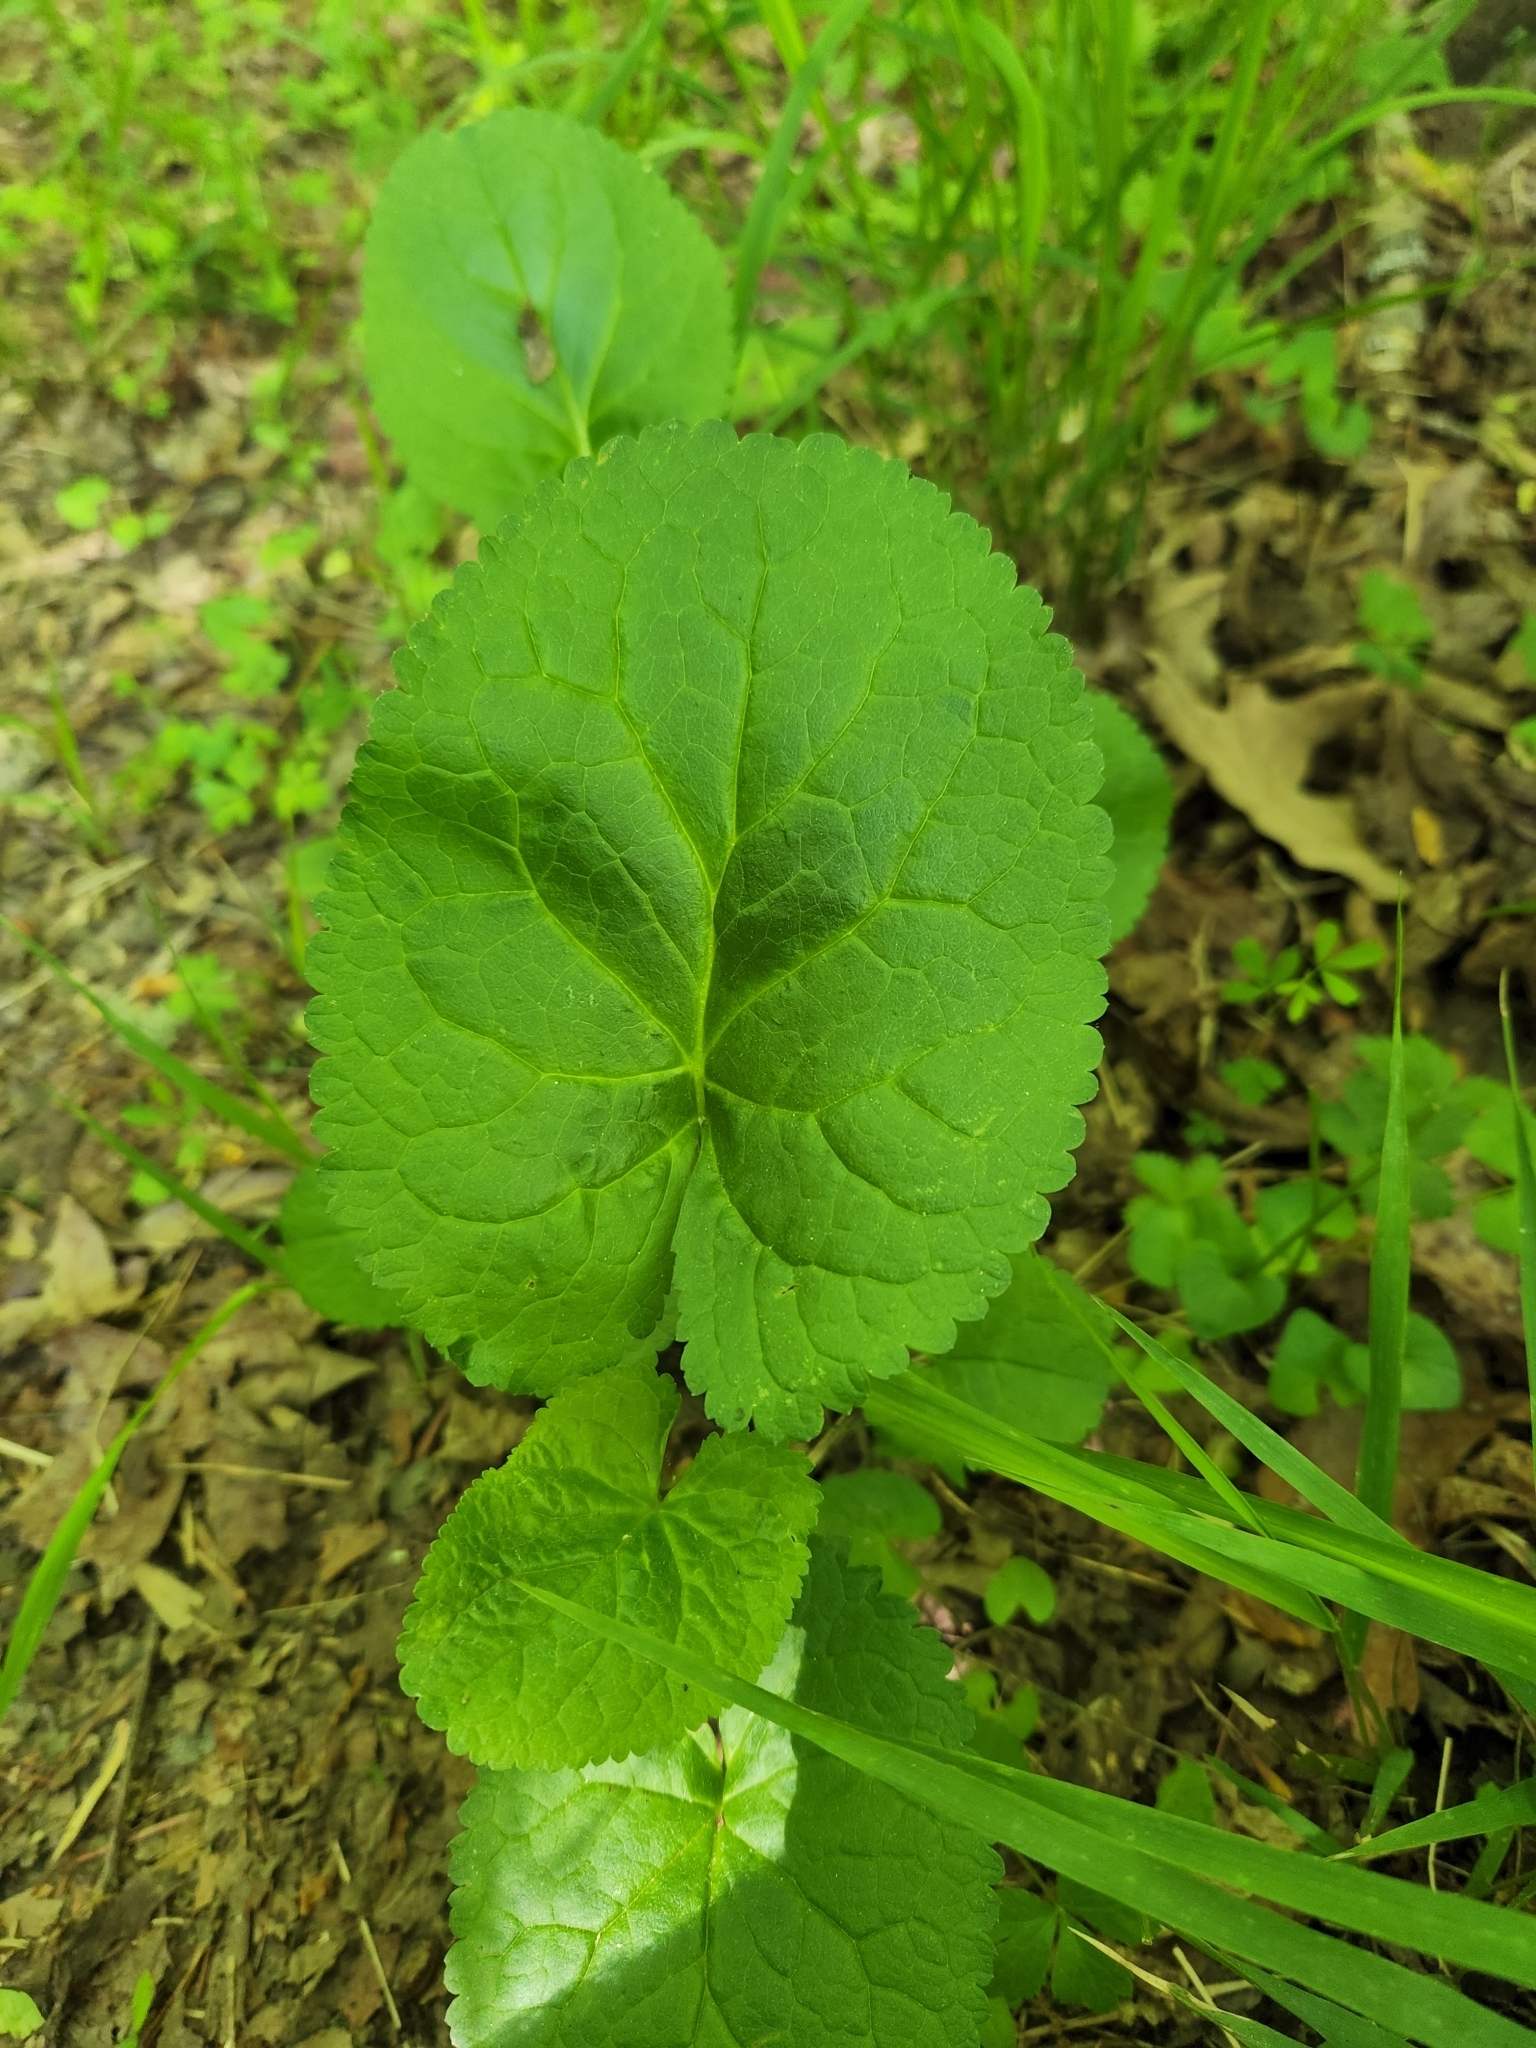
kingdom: Plantae
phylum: Tracheophyta
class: Magnoliopsida
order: Asterales
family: Asteraceae
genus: Packera
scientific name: Packera aurea
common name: Golden groundsel
